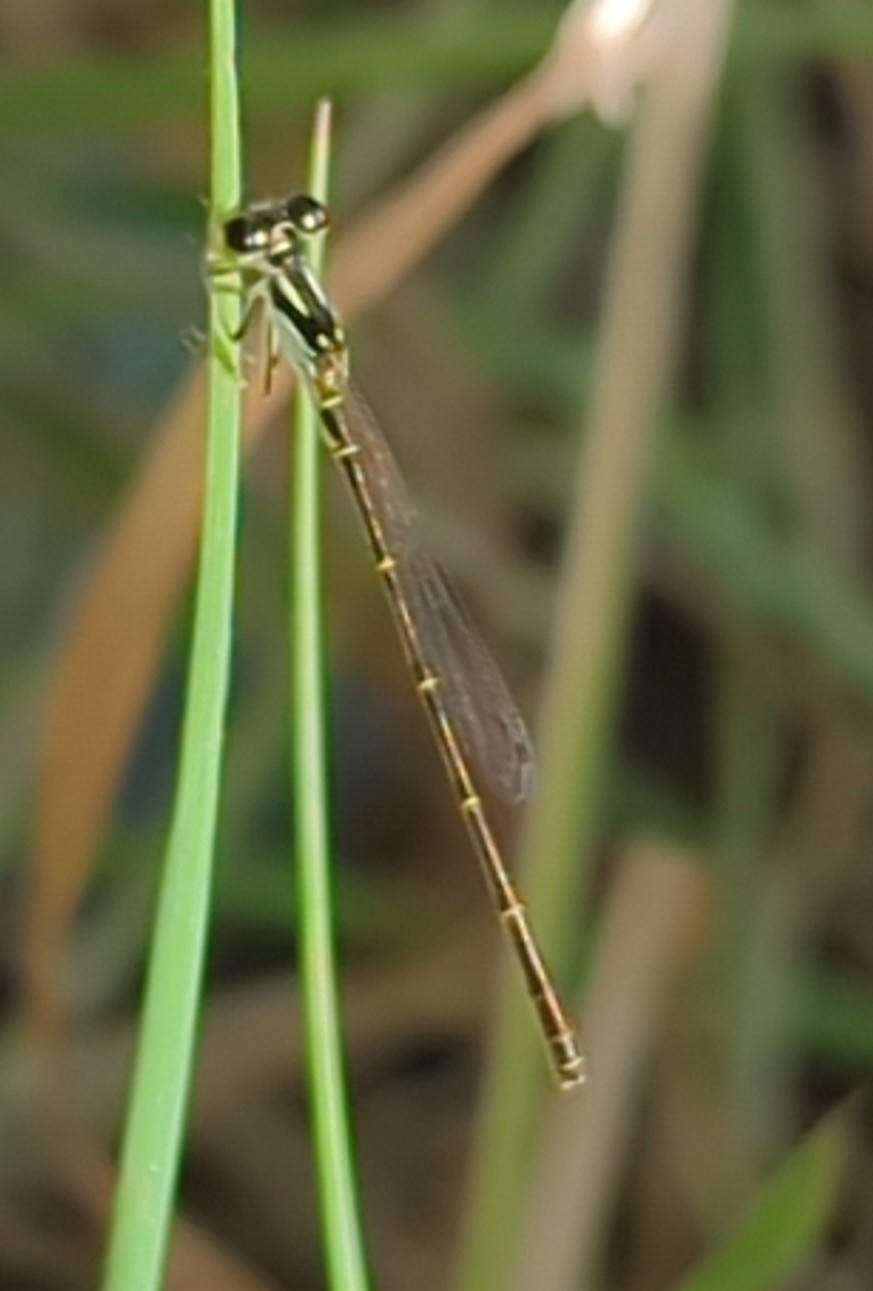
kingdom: Animalia
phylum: Arthropoda
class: Insecta
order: Odonata
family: Coenagrionidae
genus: Ischnura
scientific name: Ischnura posita
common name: Fragile forktail
